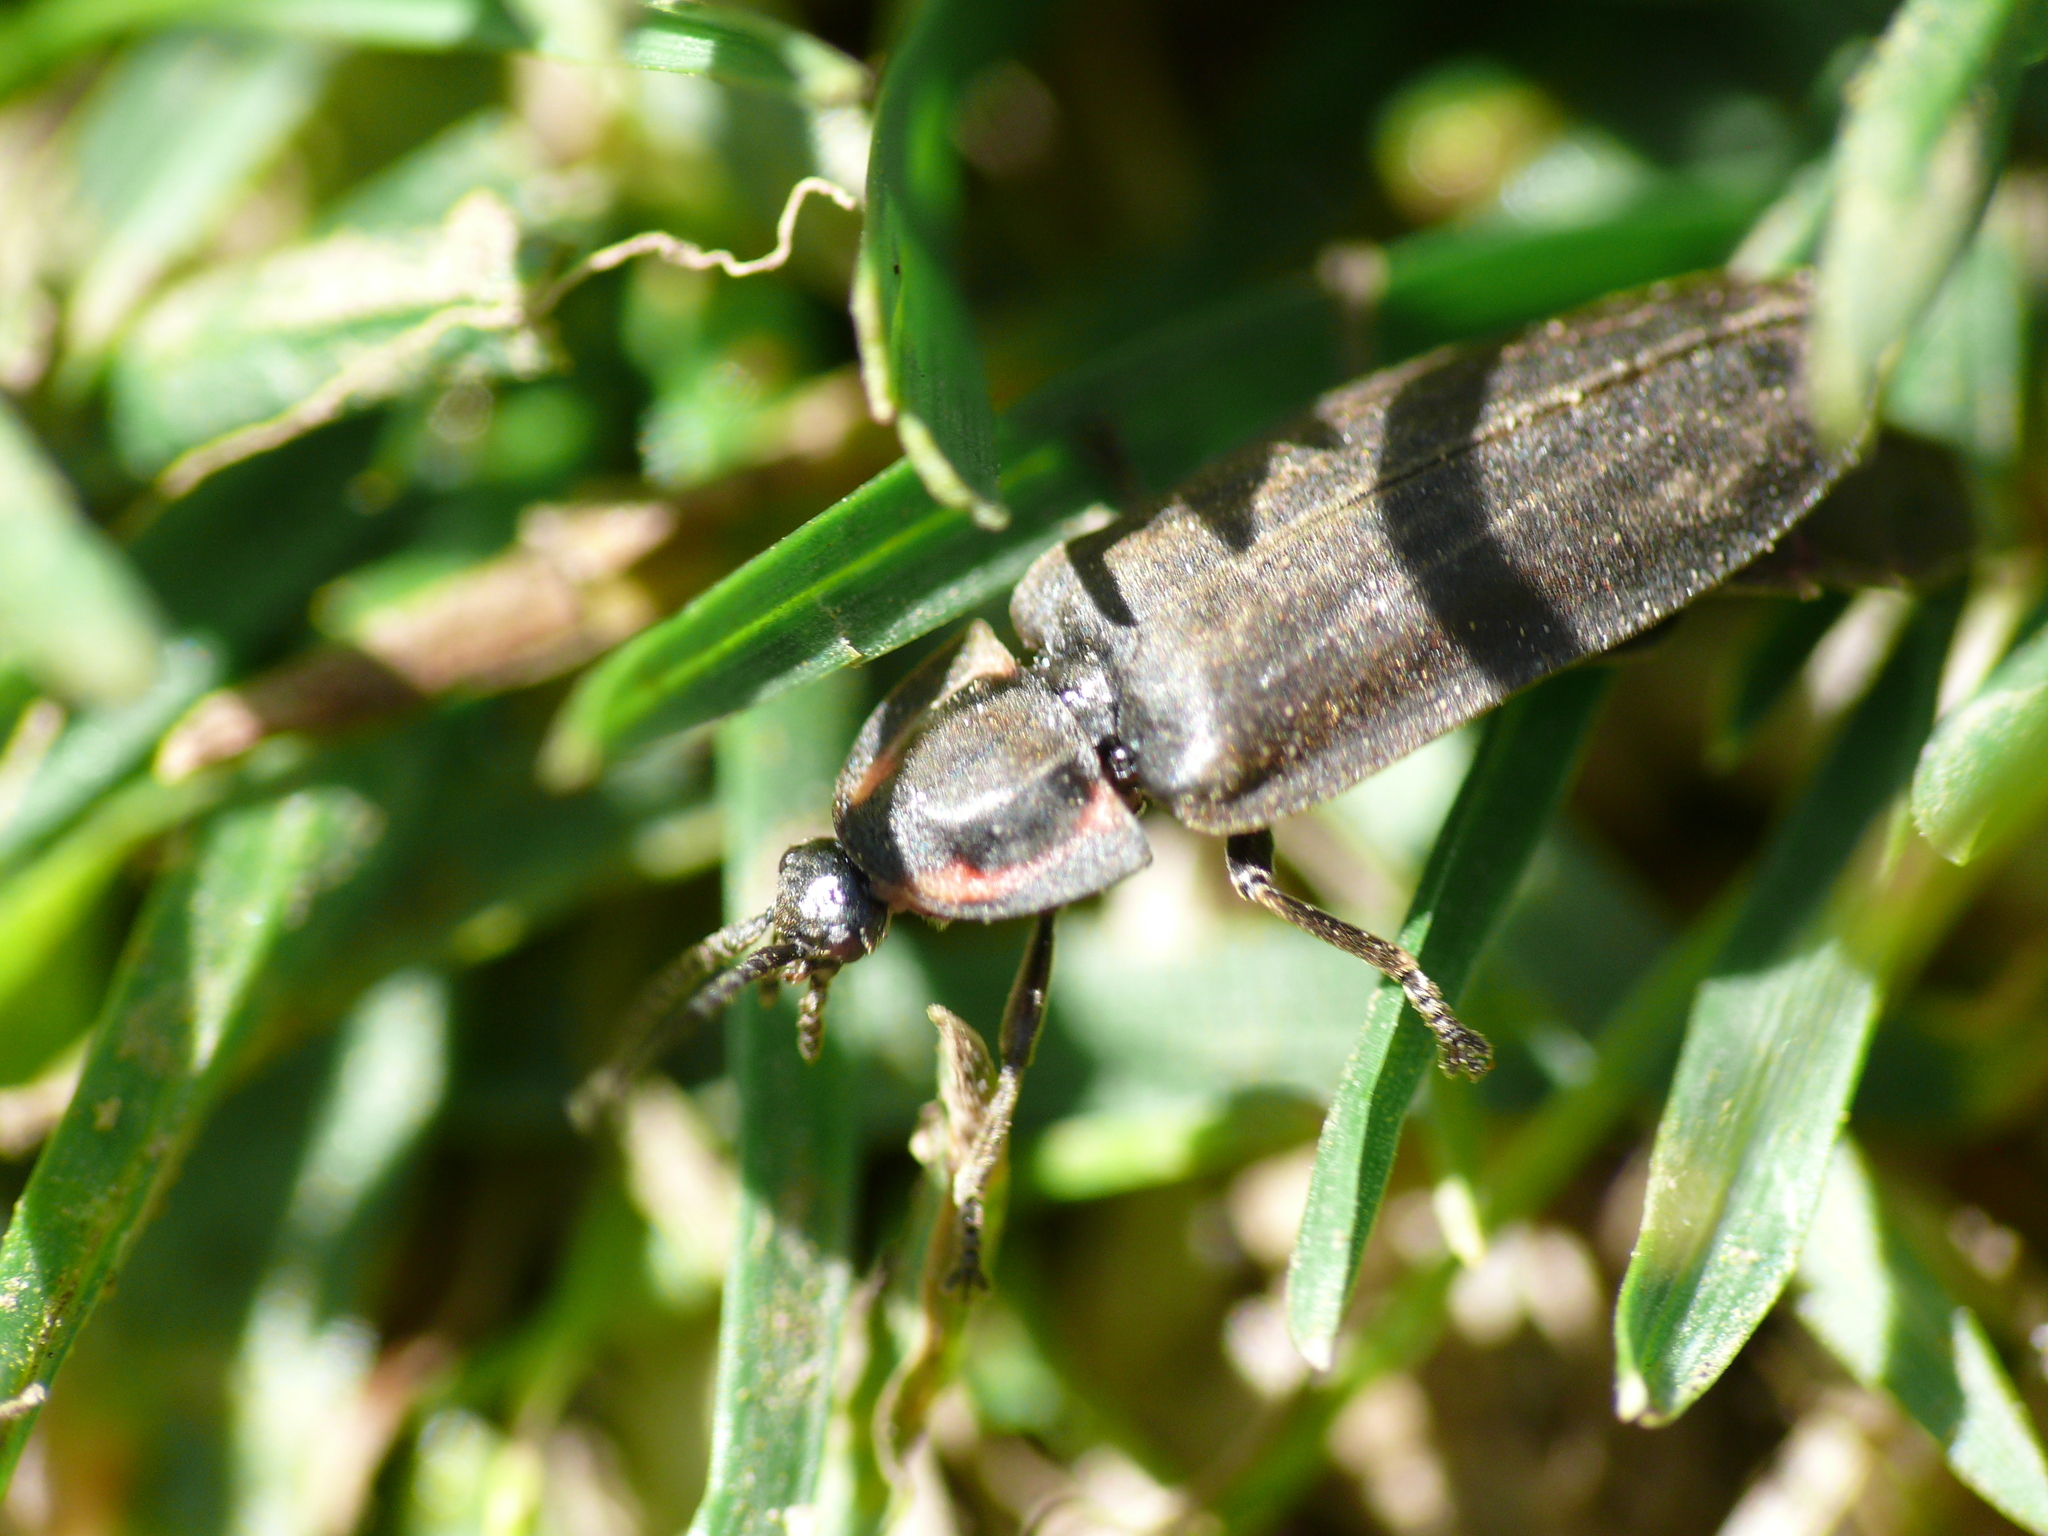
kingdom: Animalia
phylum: Arthropoda
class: Insecta
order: Coleoptera
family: Lampyridae
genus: Ellychnia
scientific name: Ellychnia
